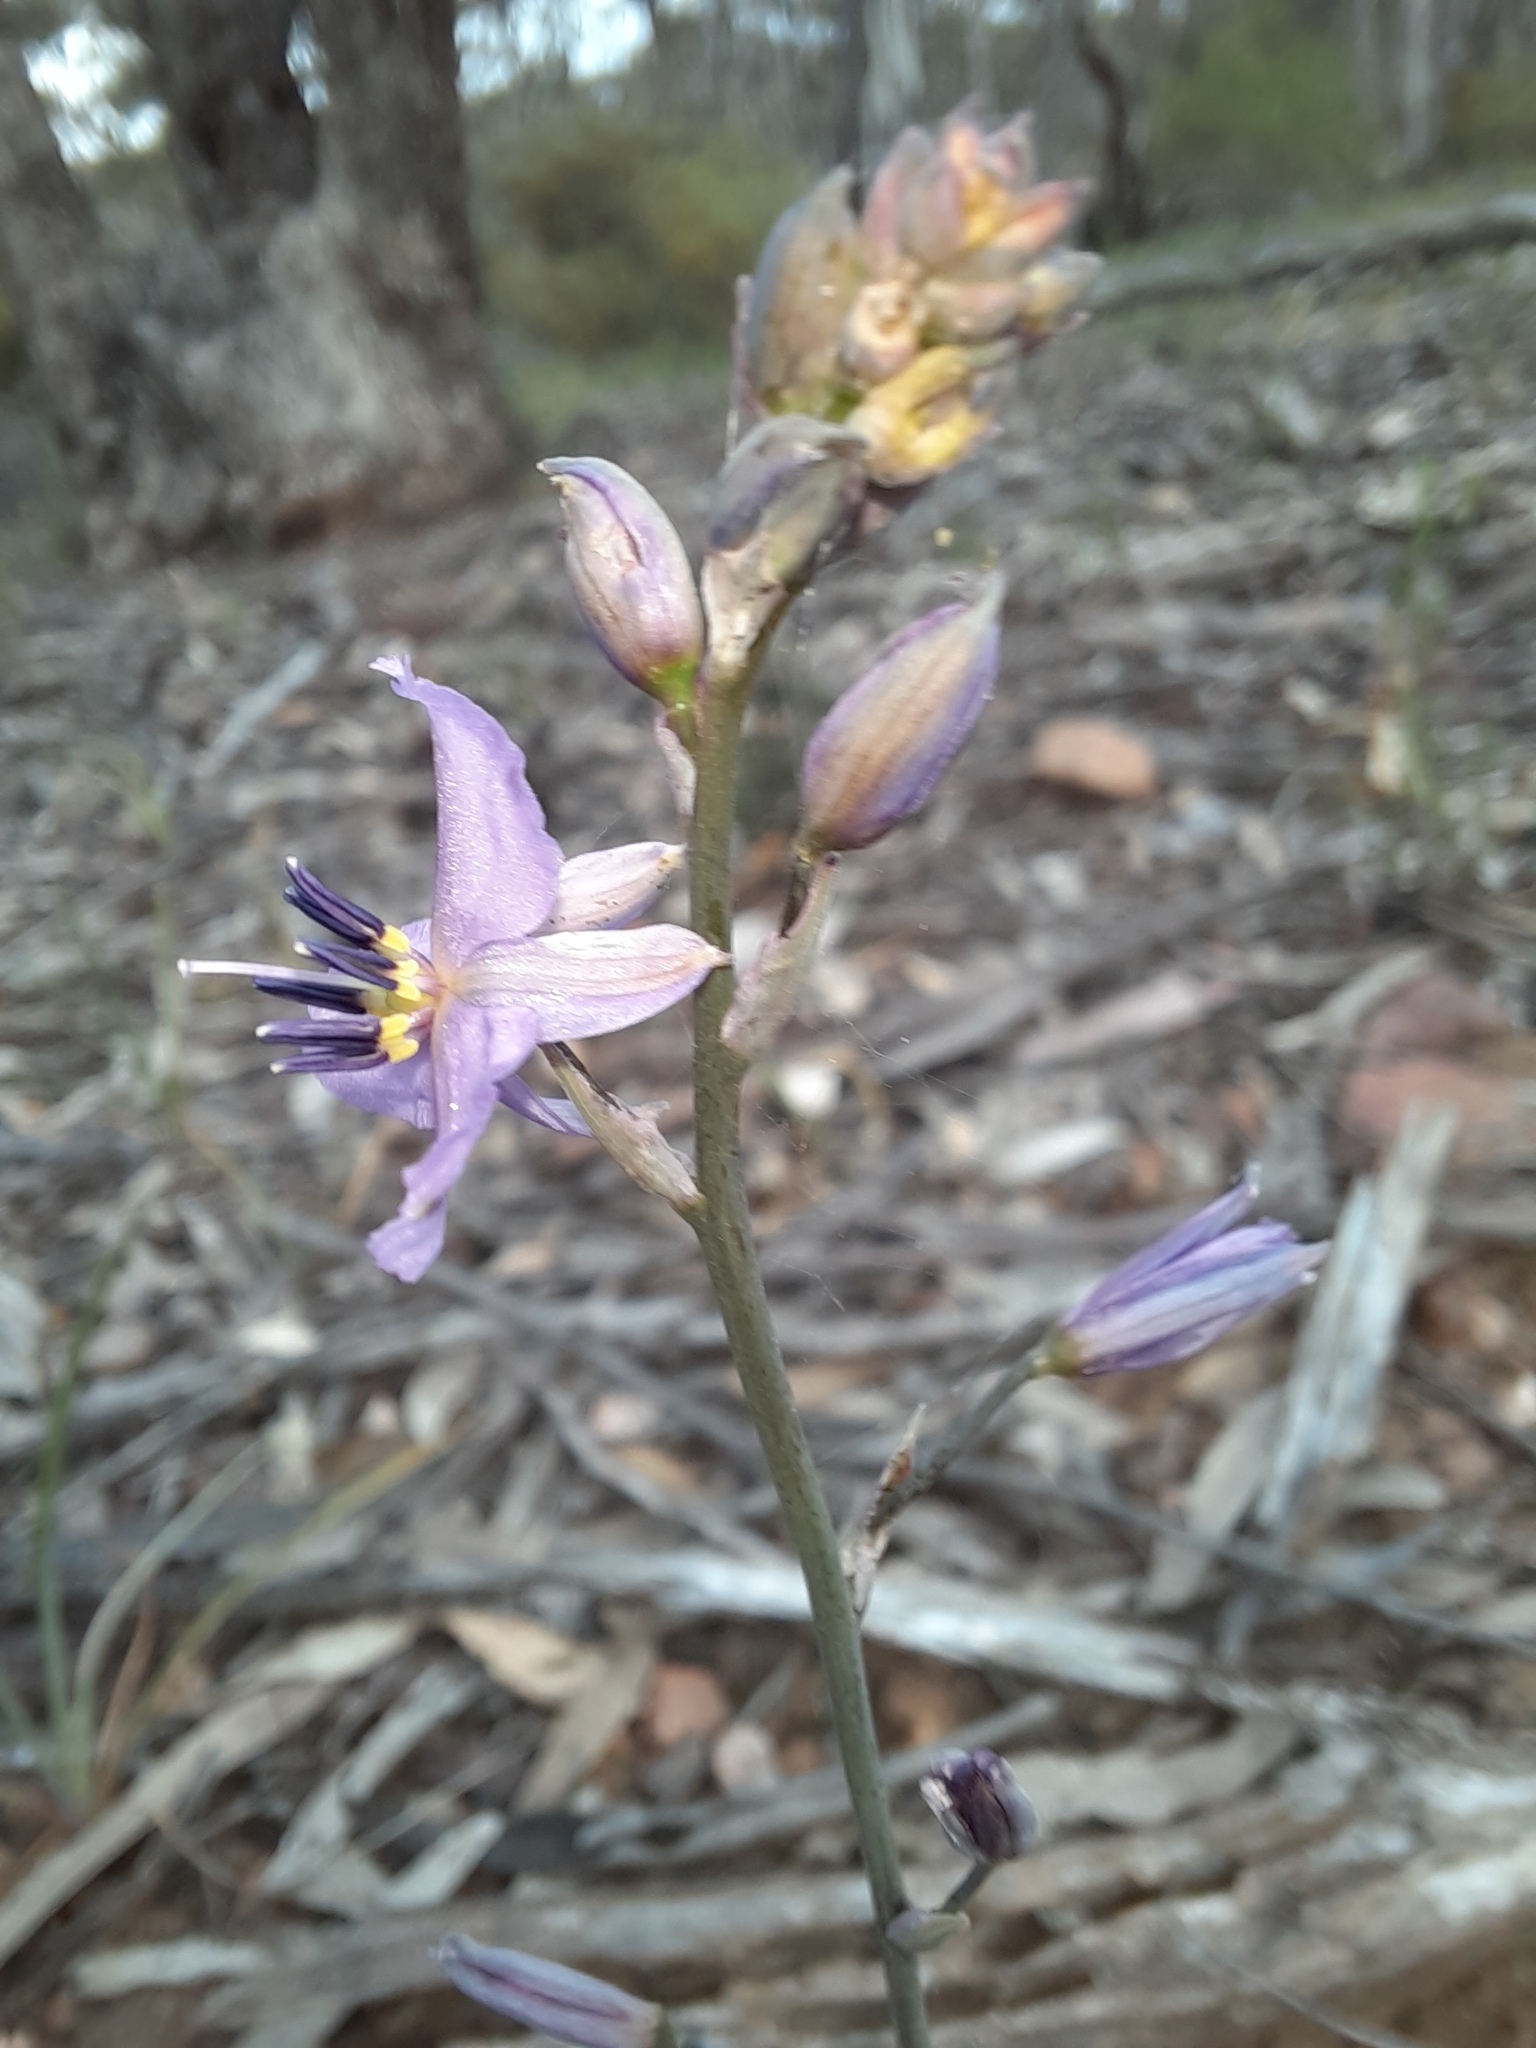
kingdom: Plantae
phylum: Tracheophyta
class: Liliopsida
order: Asparagales
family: Asparagaceae
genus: Arthropodium
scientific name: Arthropodium strictum
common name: Chocolate-lily
